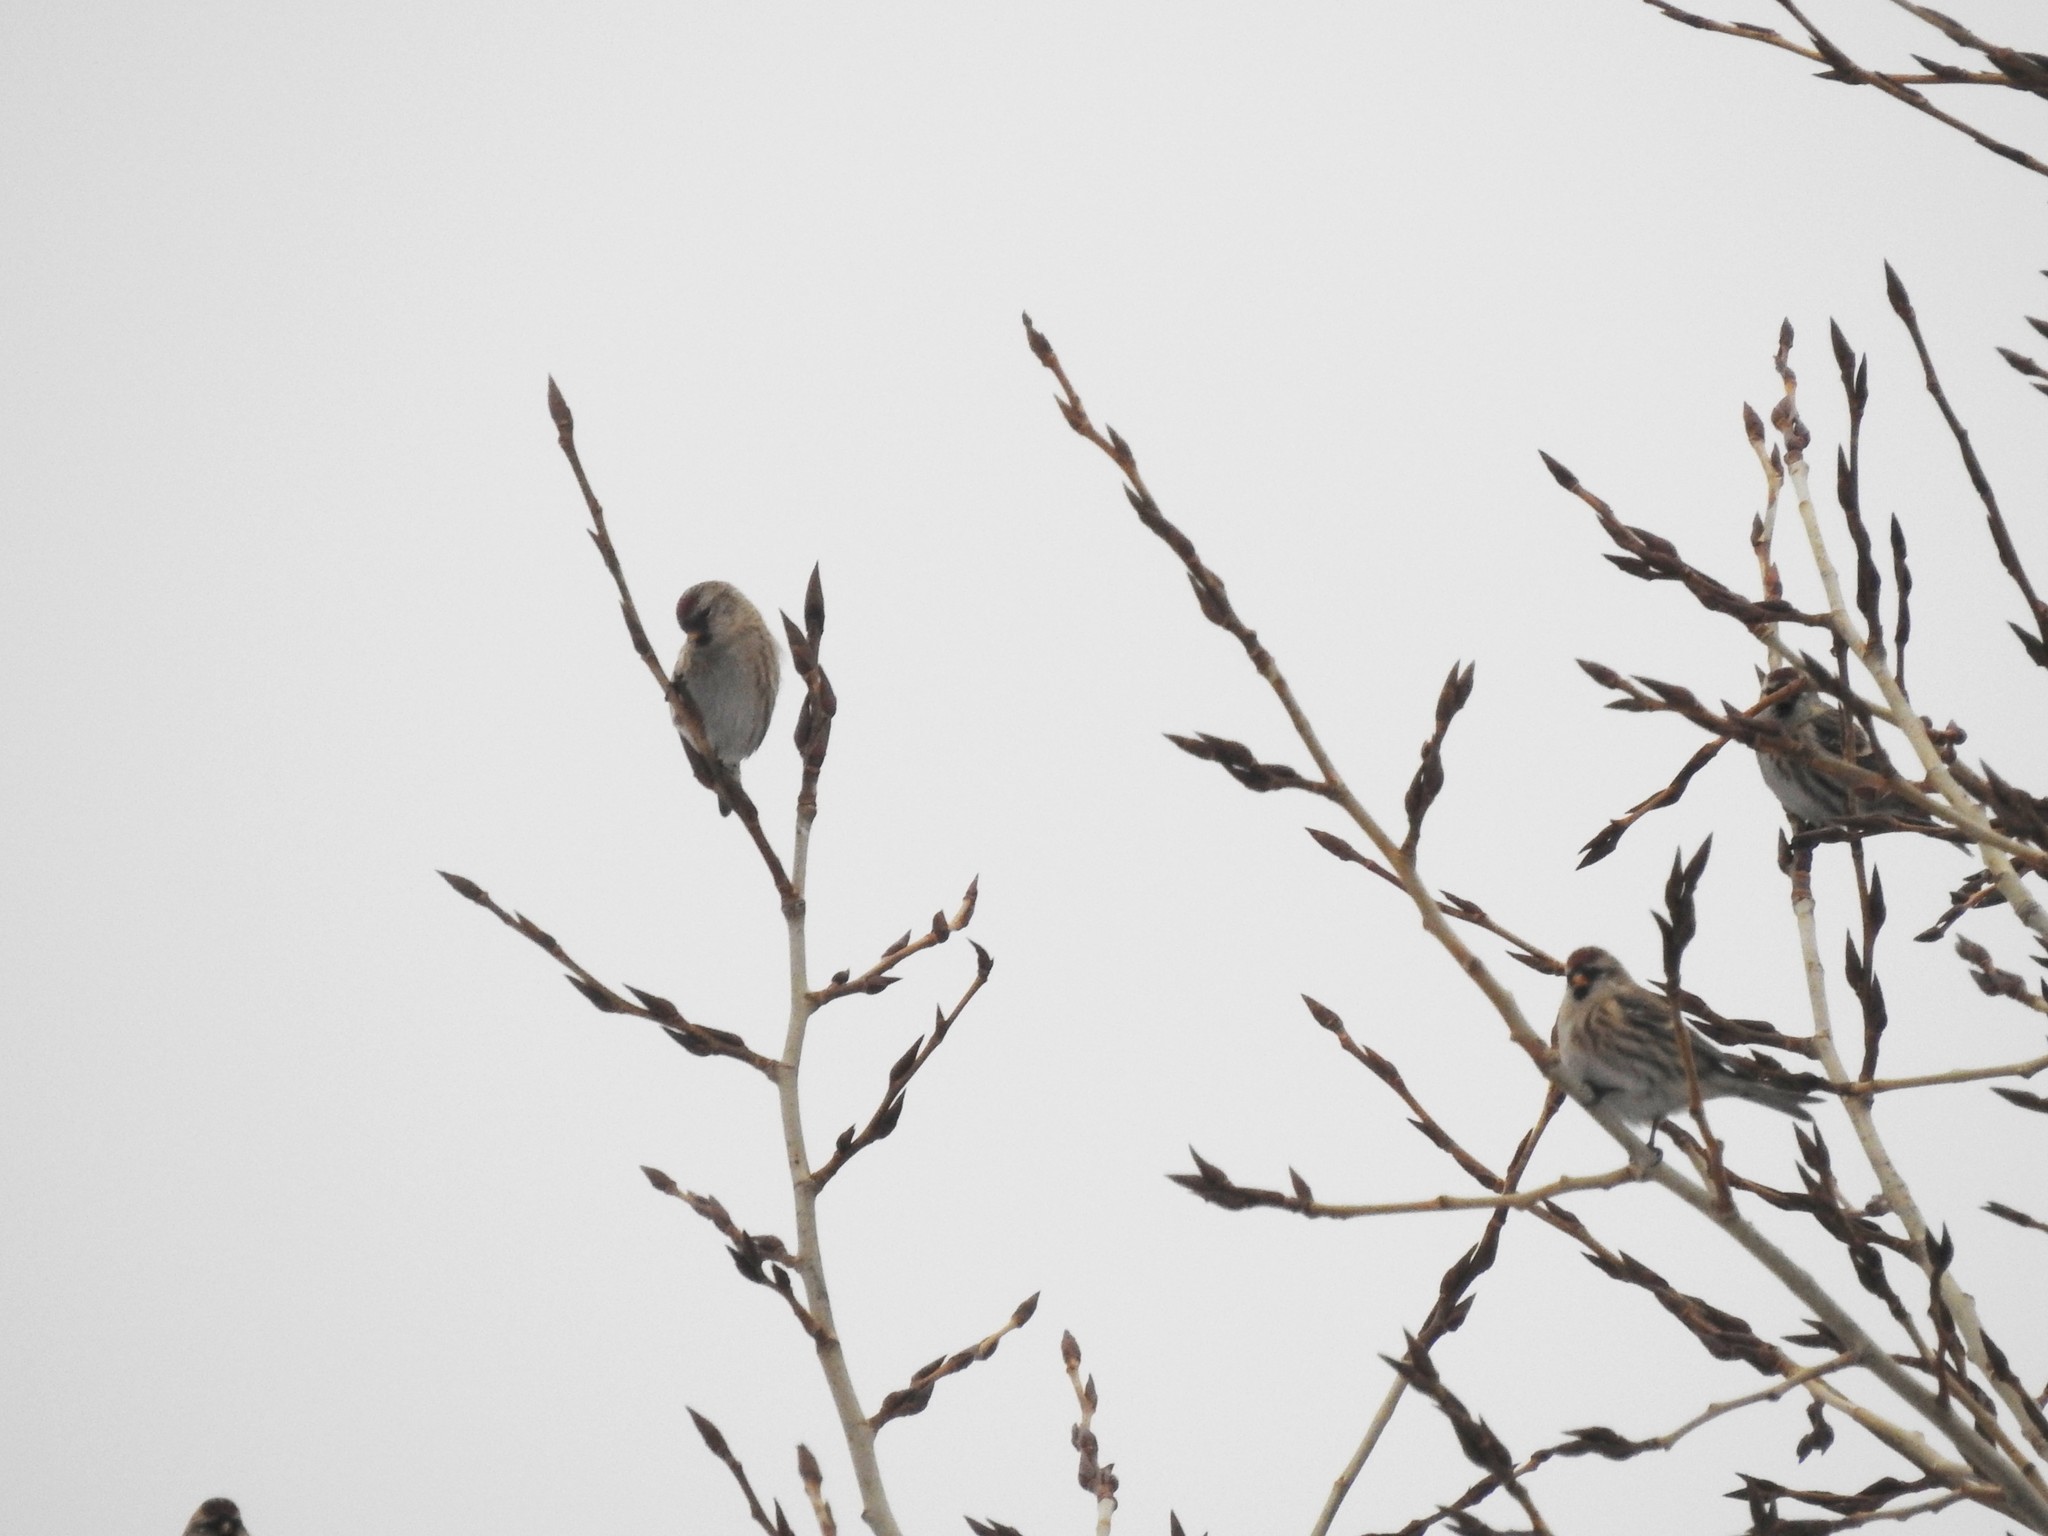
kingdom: Animalia
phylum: Chordata
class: Aves
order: Passeriformes
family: Fringillidae
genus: Acanthis
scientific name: Acanthis flammea
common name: Common redpoll
